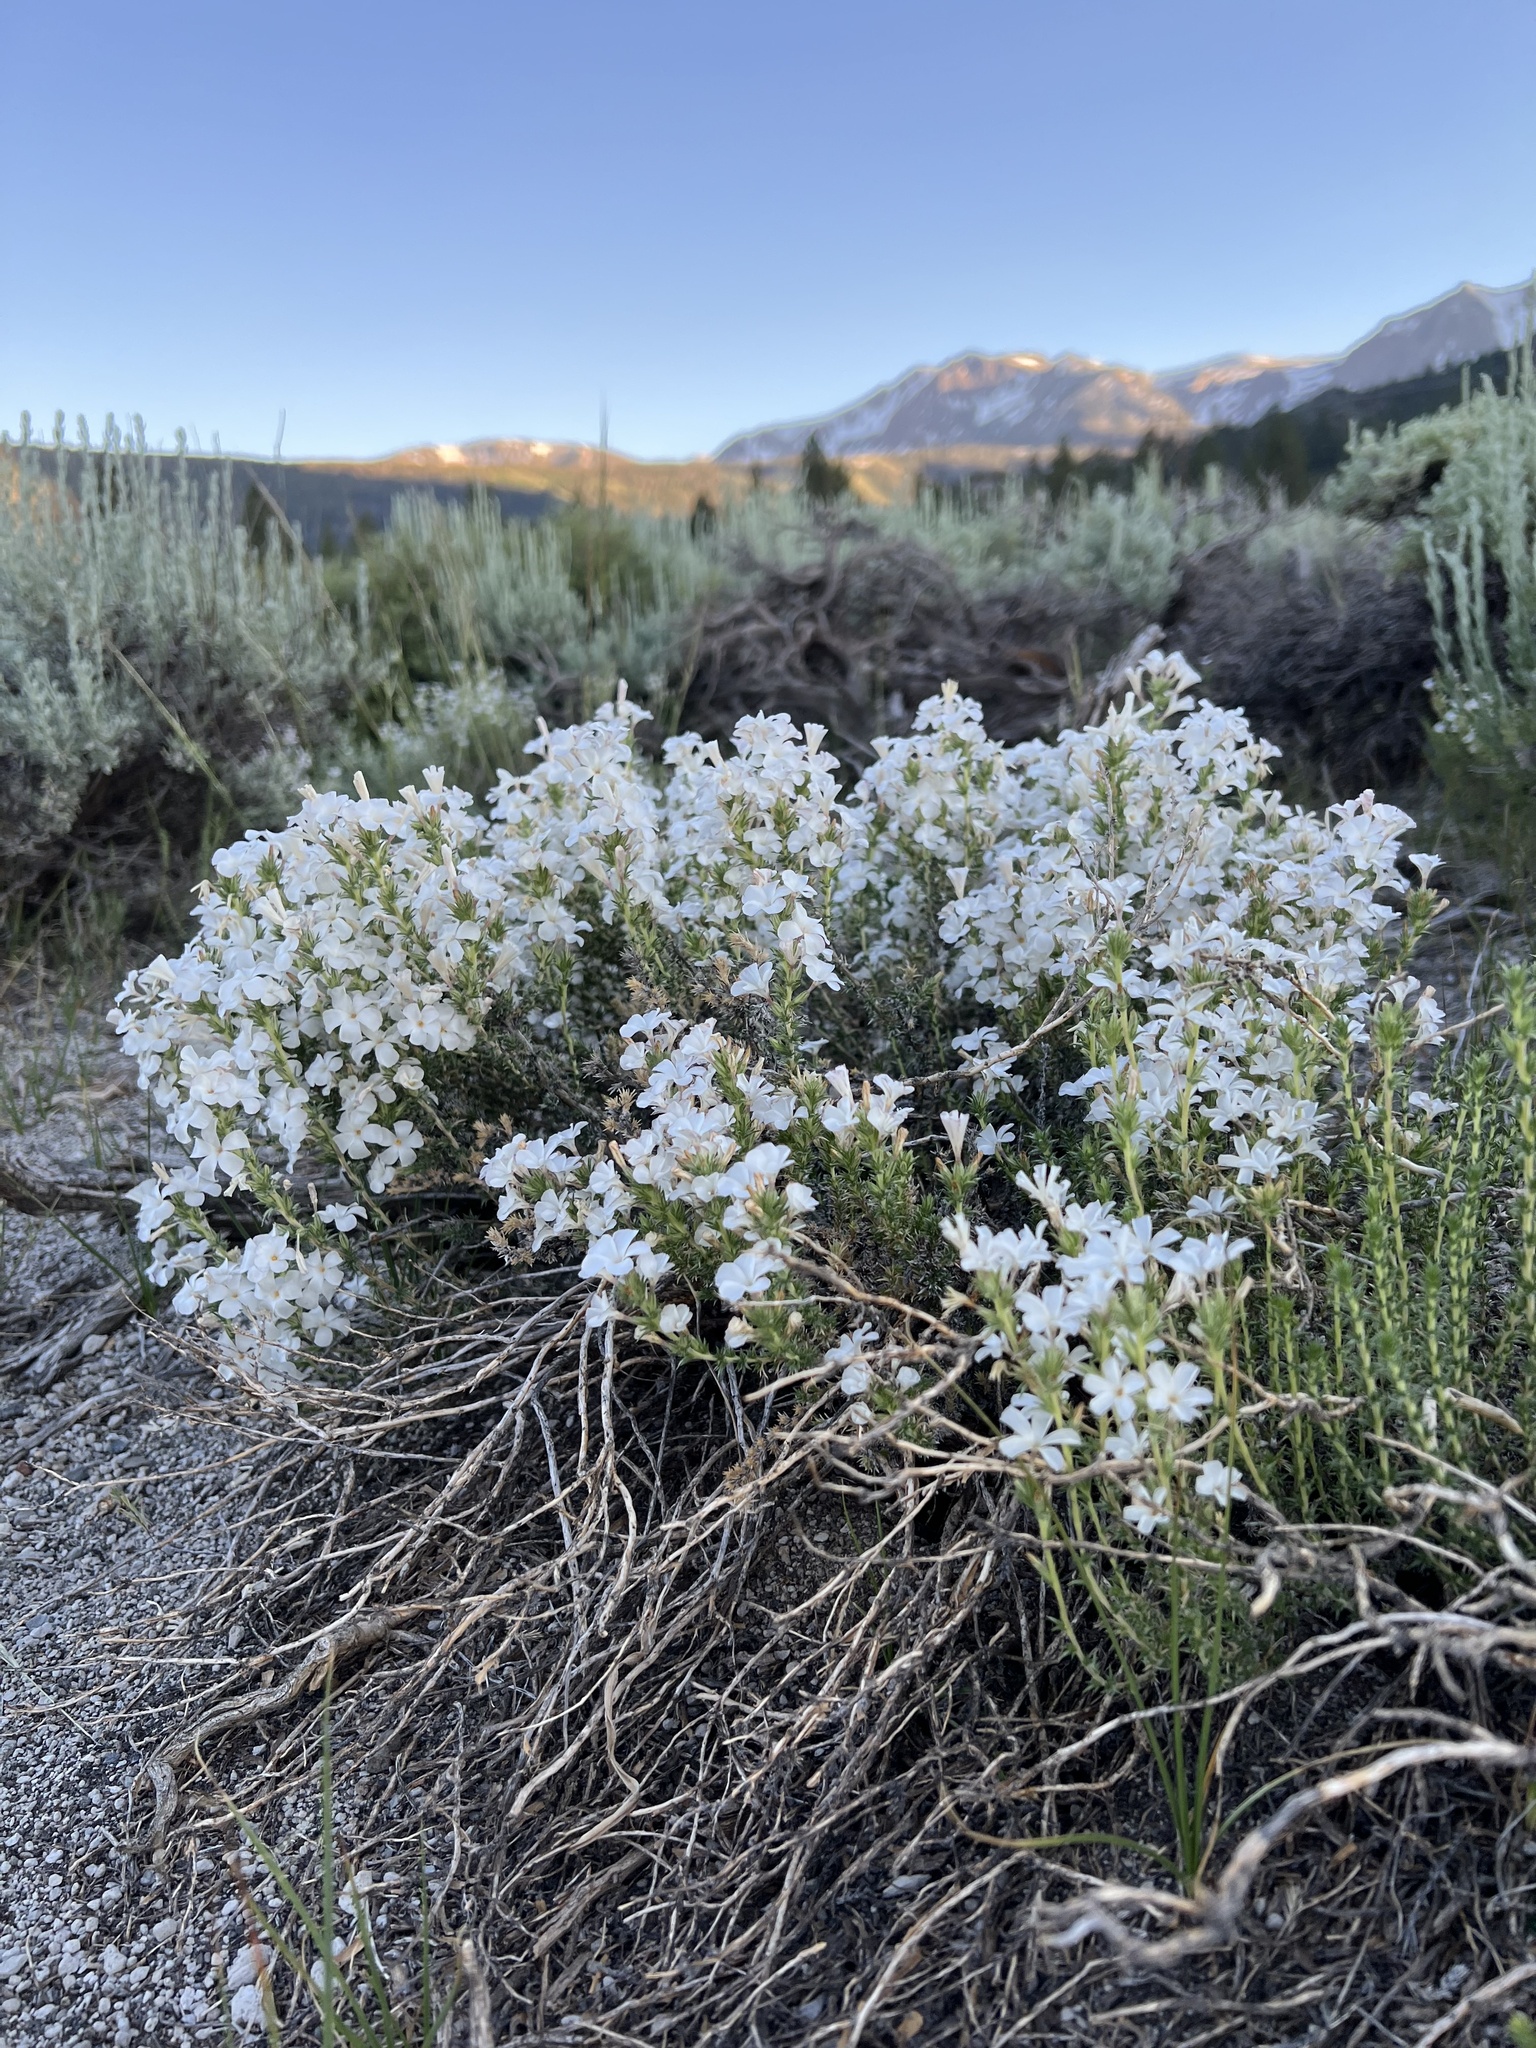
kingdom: Plantae
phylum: Tracheophyta
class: Magnoliopsida
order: Ericales
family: Polemoniaceae
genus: Linanthus
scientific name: Linanthus pungens
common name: Granite prickly phlox
